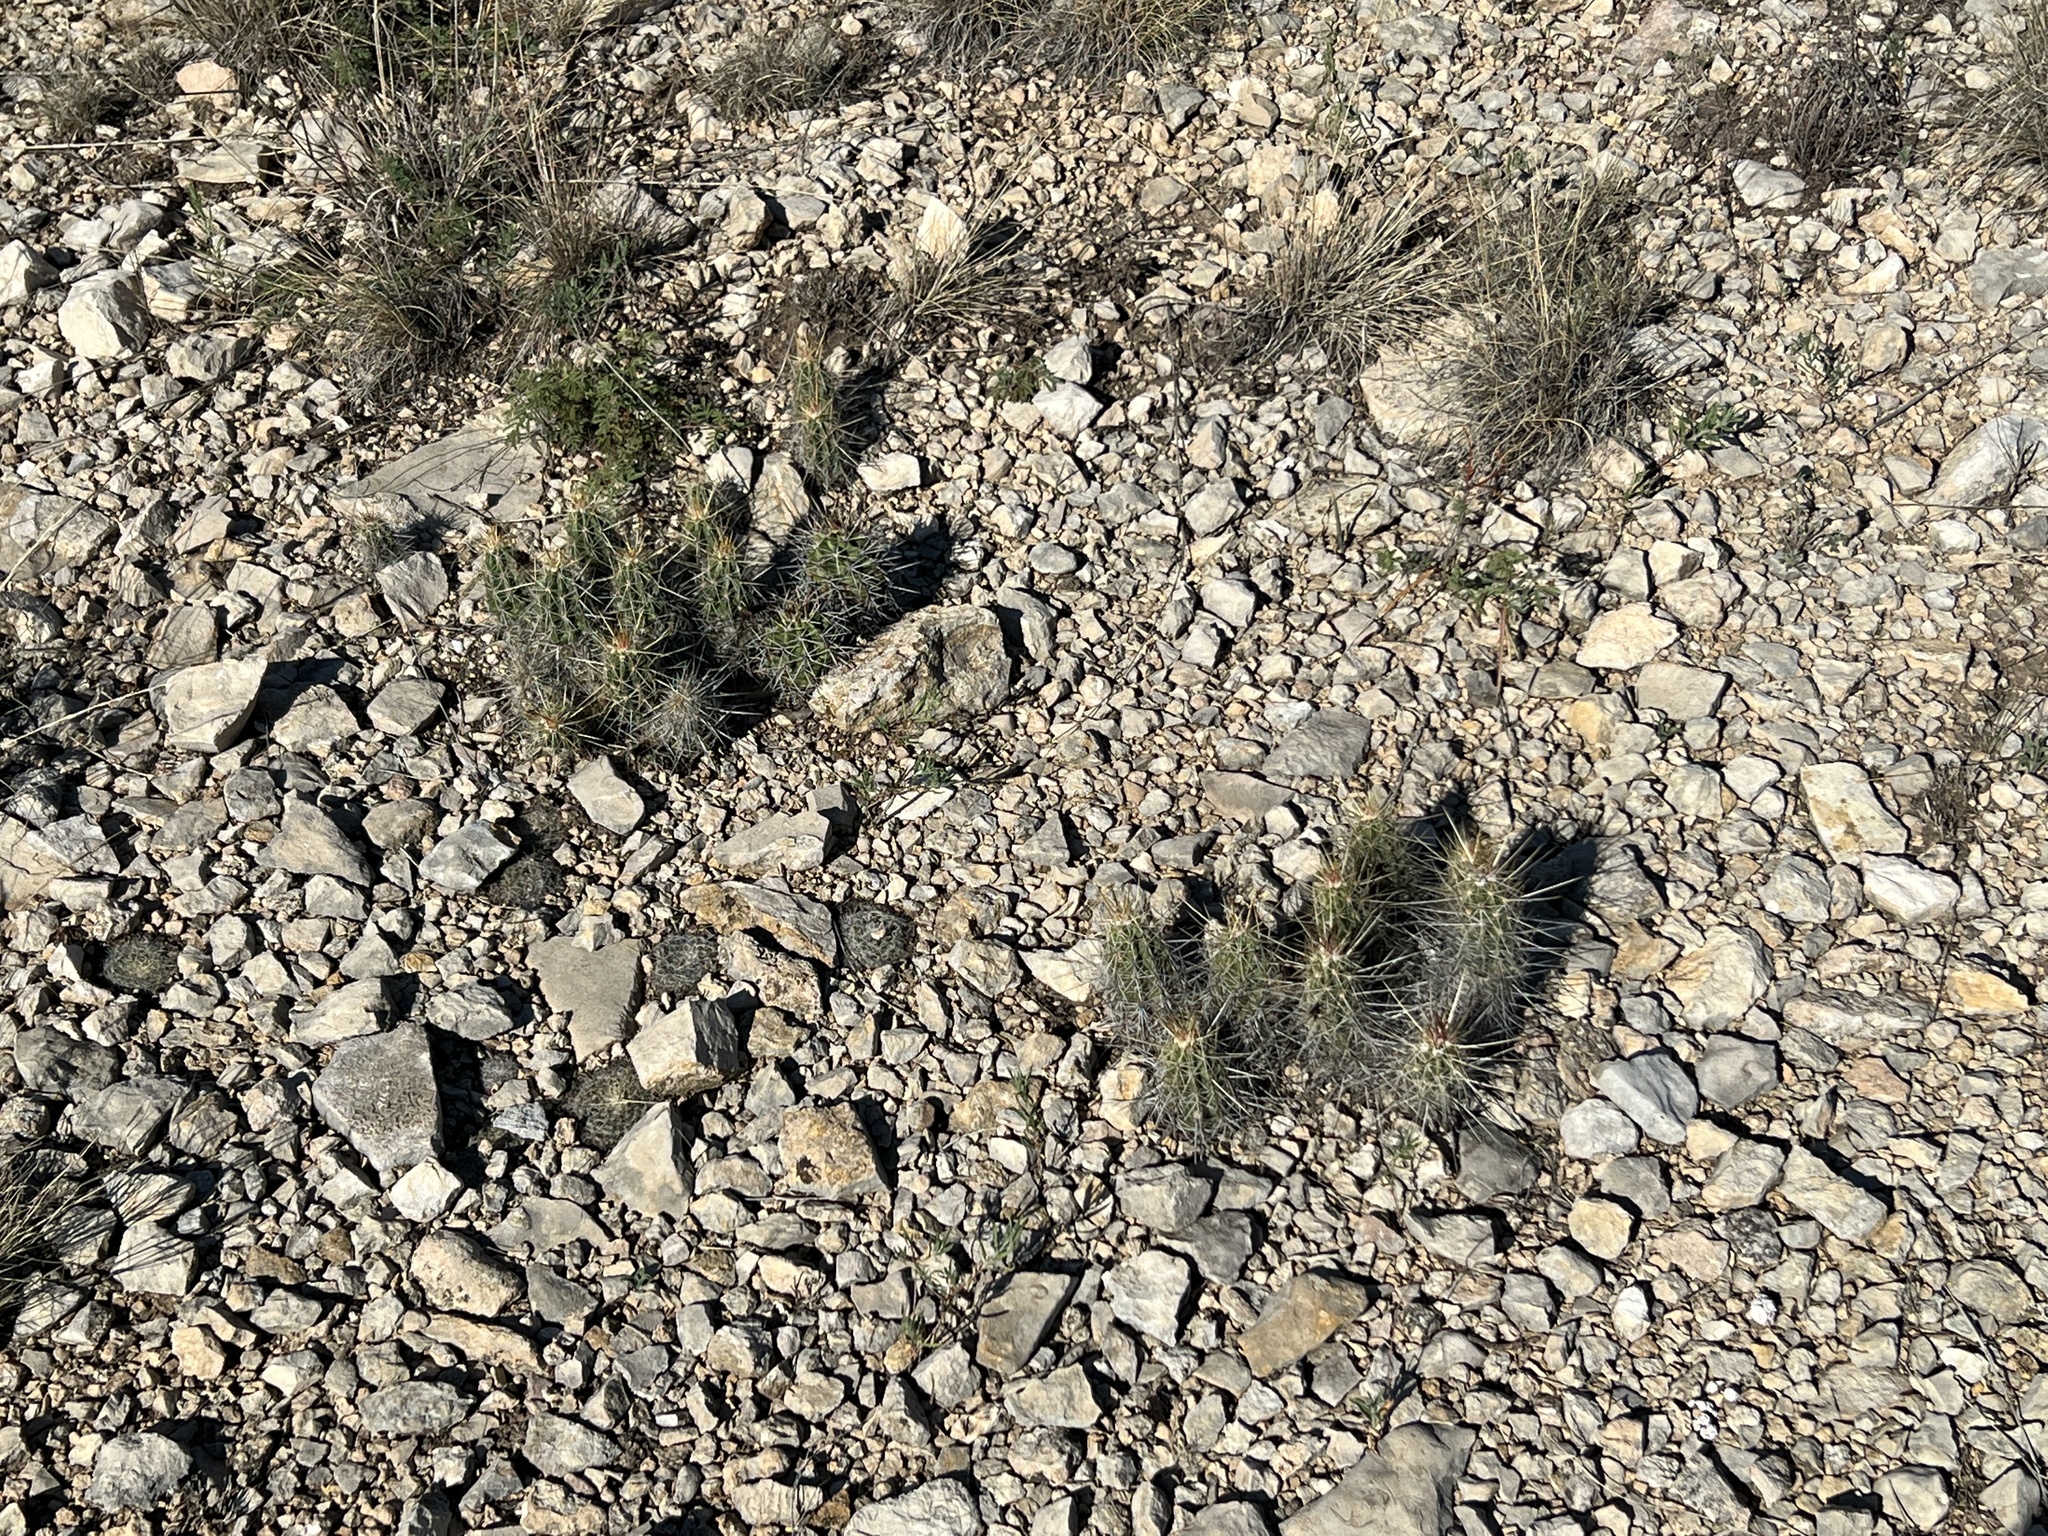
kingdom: Plantae
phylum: Tracheophyta
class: Magnoliopsida
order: Caryophyllales
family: Cactaceae
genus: Echinocereus
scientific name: Echinocereus enneacanthus
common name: Pitaya
